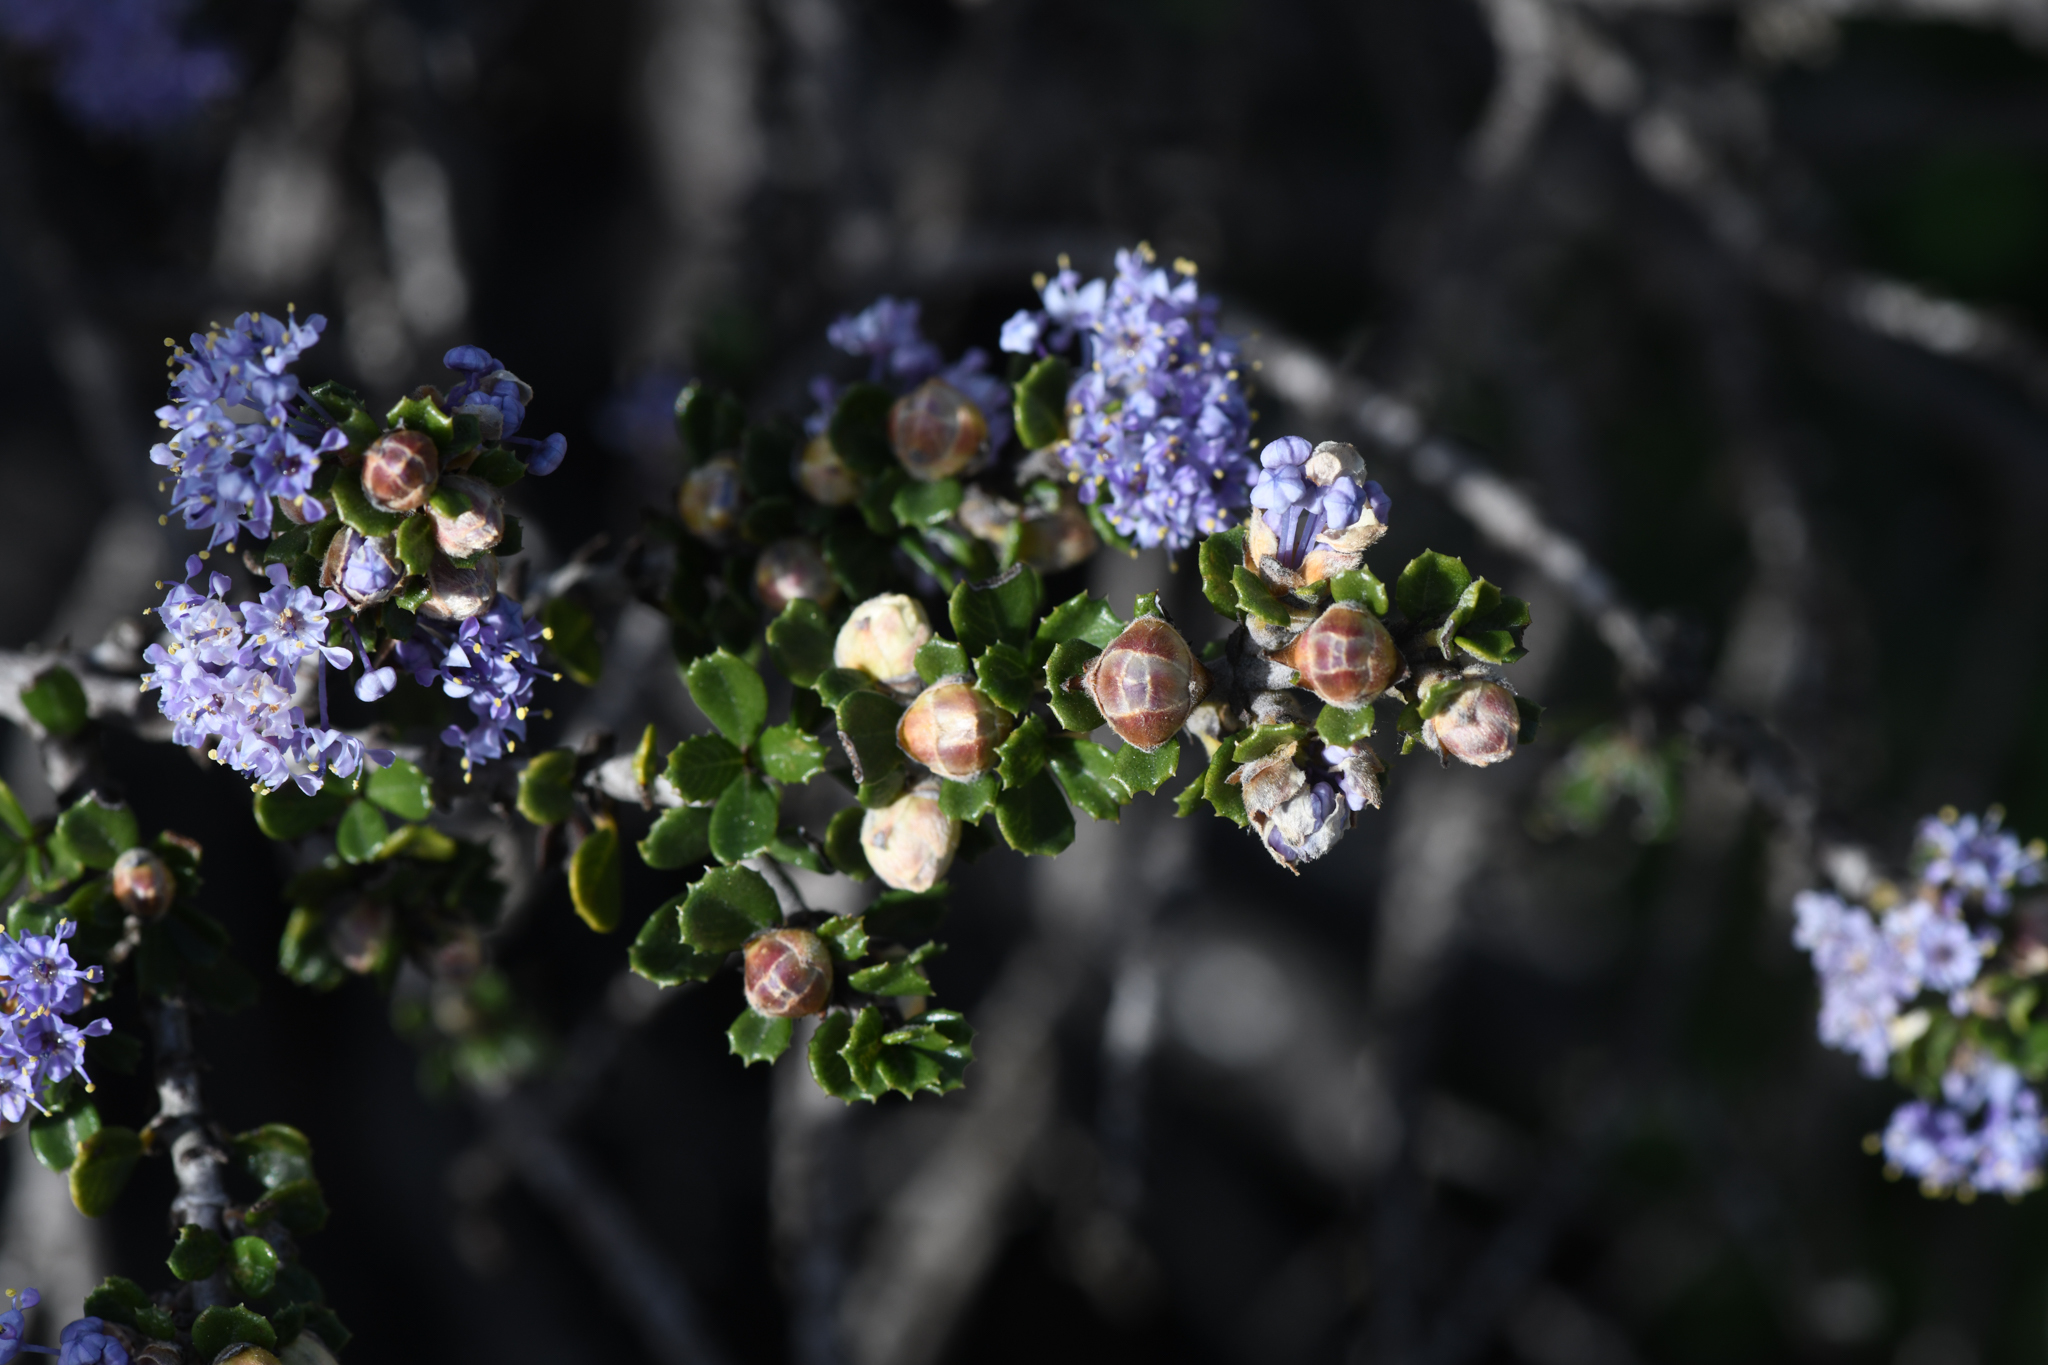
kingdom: Plantae
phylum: Tracheophyta
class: Magnoliopsida
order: Rosales
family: Rhamnaceae
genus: Ceanothus
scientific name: Ceanothus cuneatus
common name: Cuneate ceanothus
